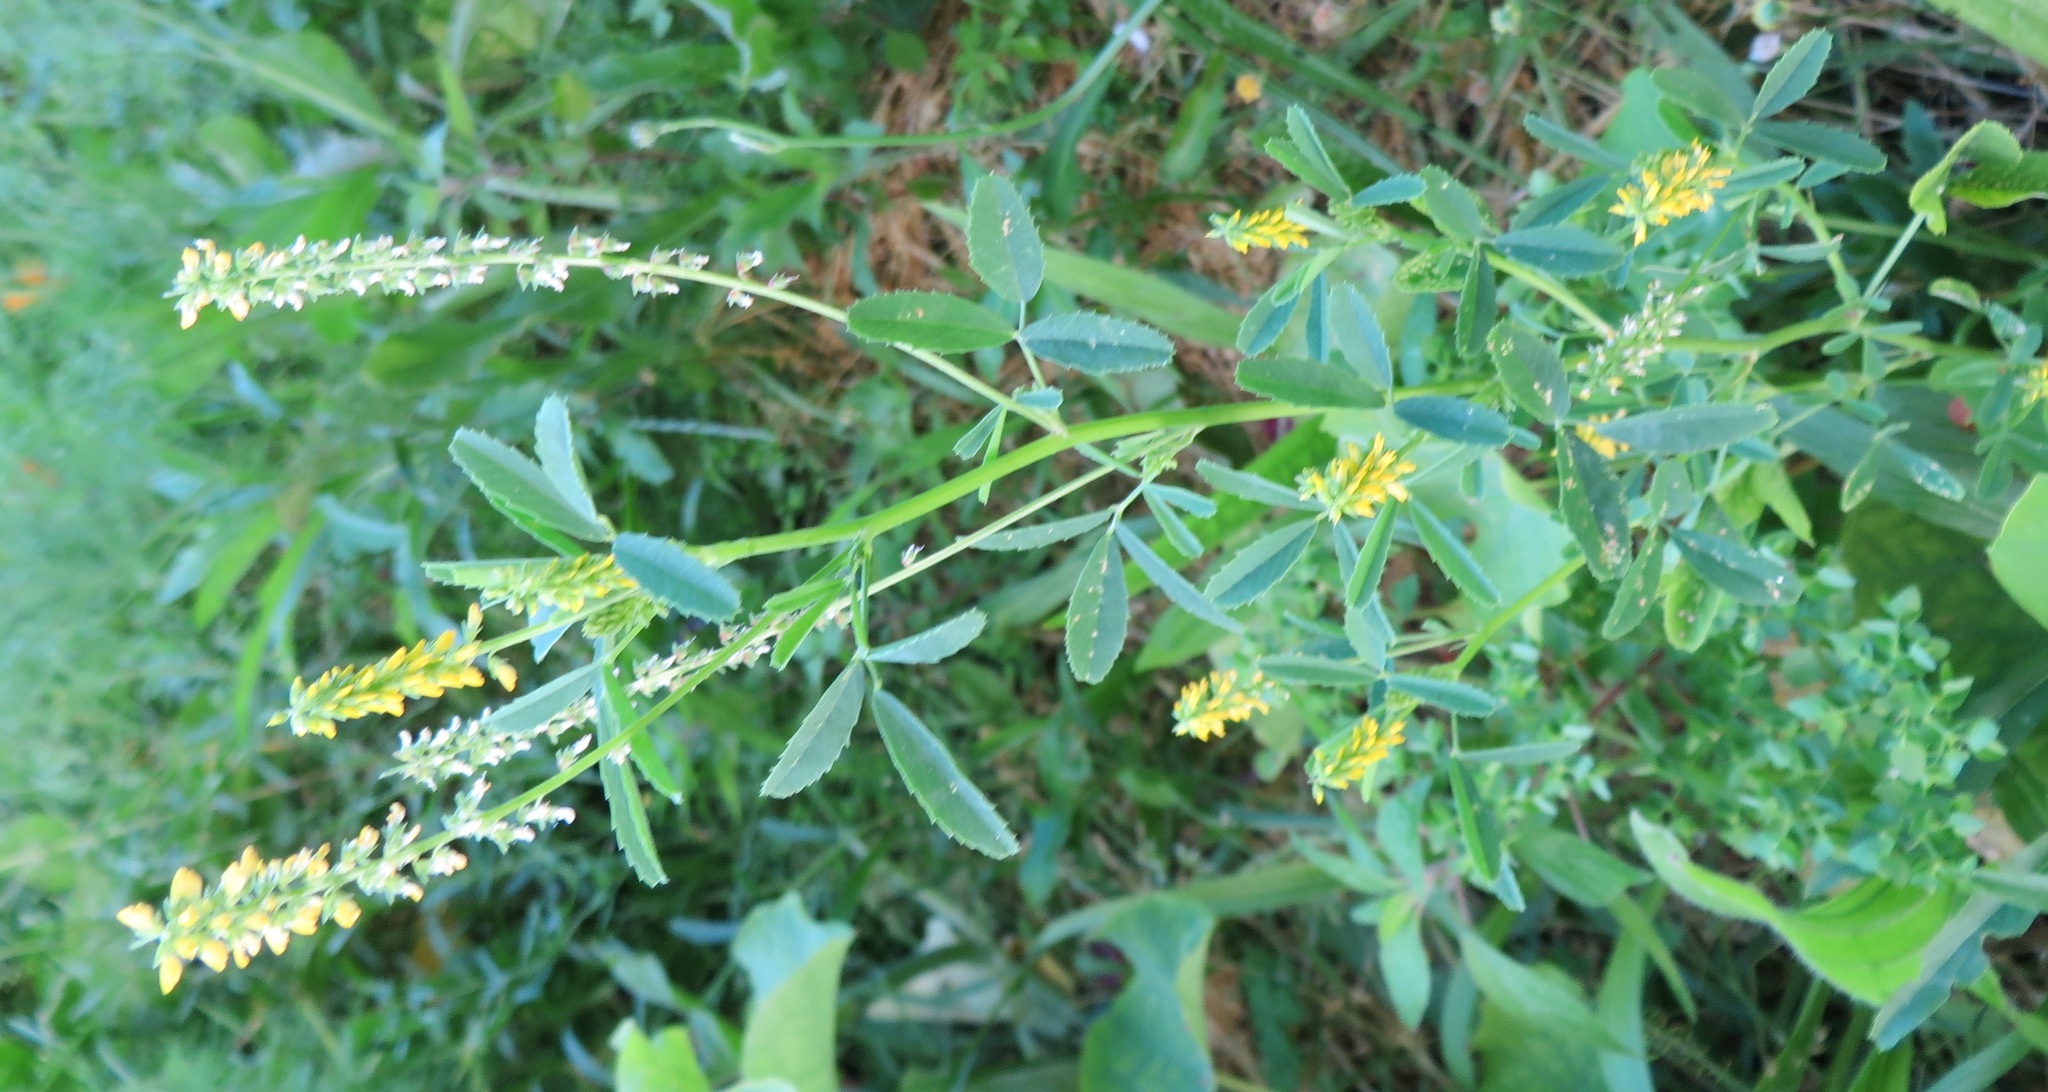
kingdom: Plantae
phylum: Tracheophyta
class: Magnoliopsida
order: Fabales
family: Fabaceae
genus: Melilotus
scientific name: Melilotus indicus
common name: Small melilot
